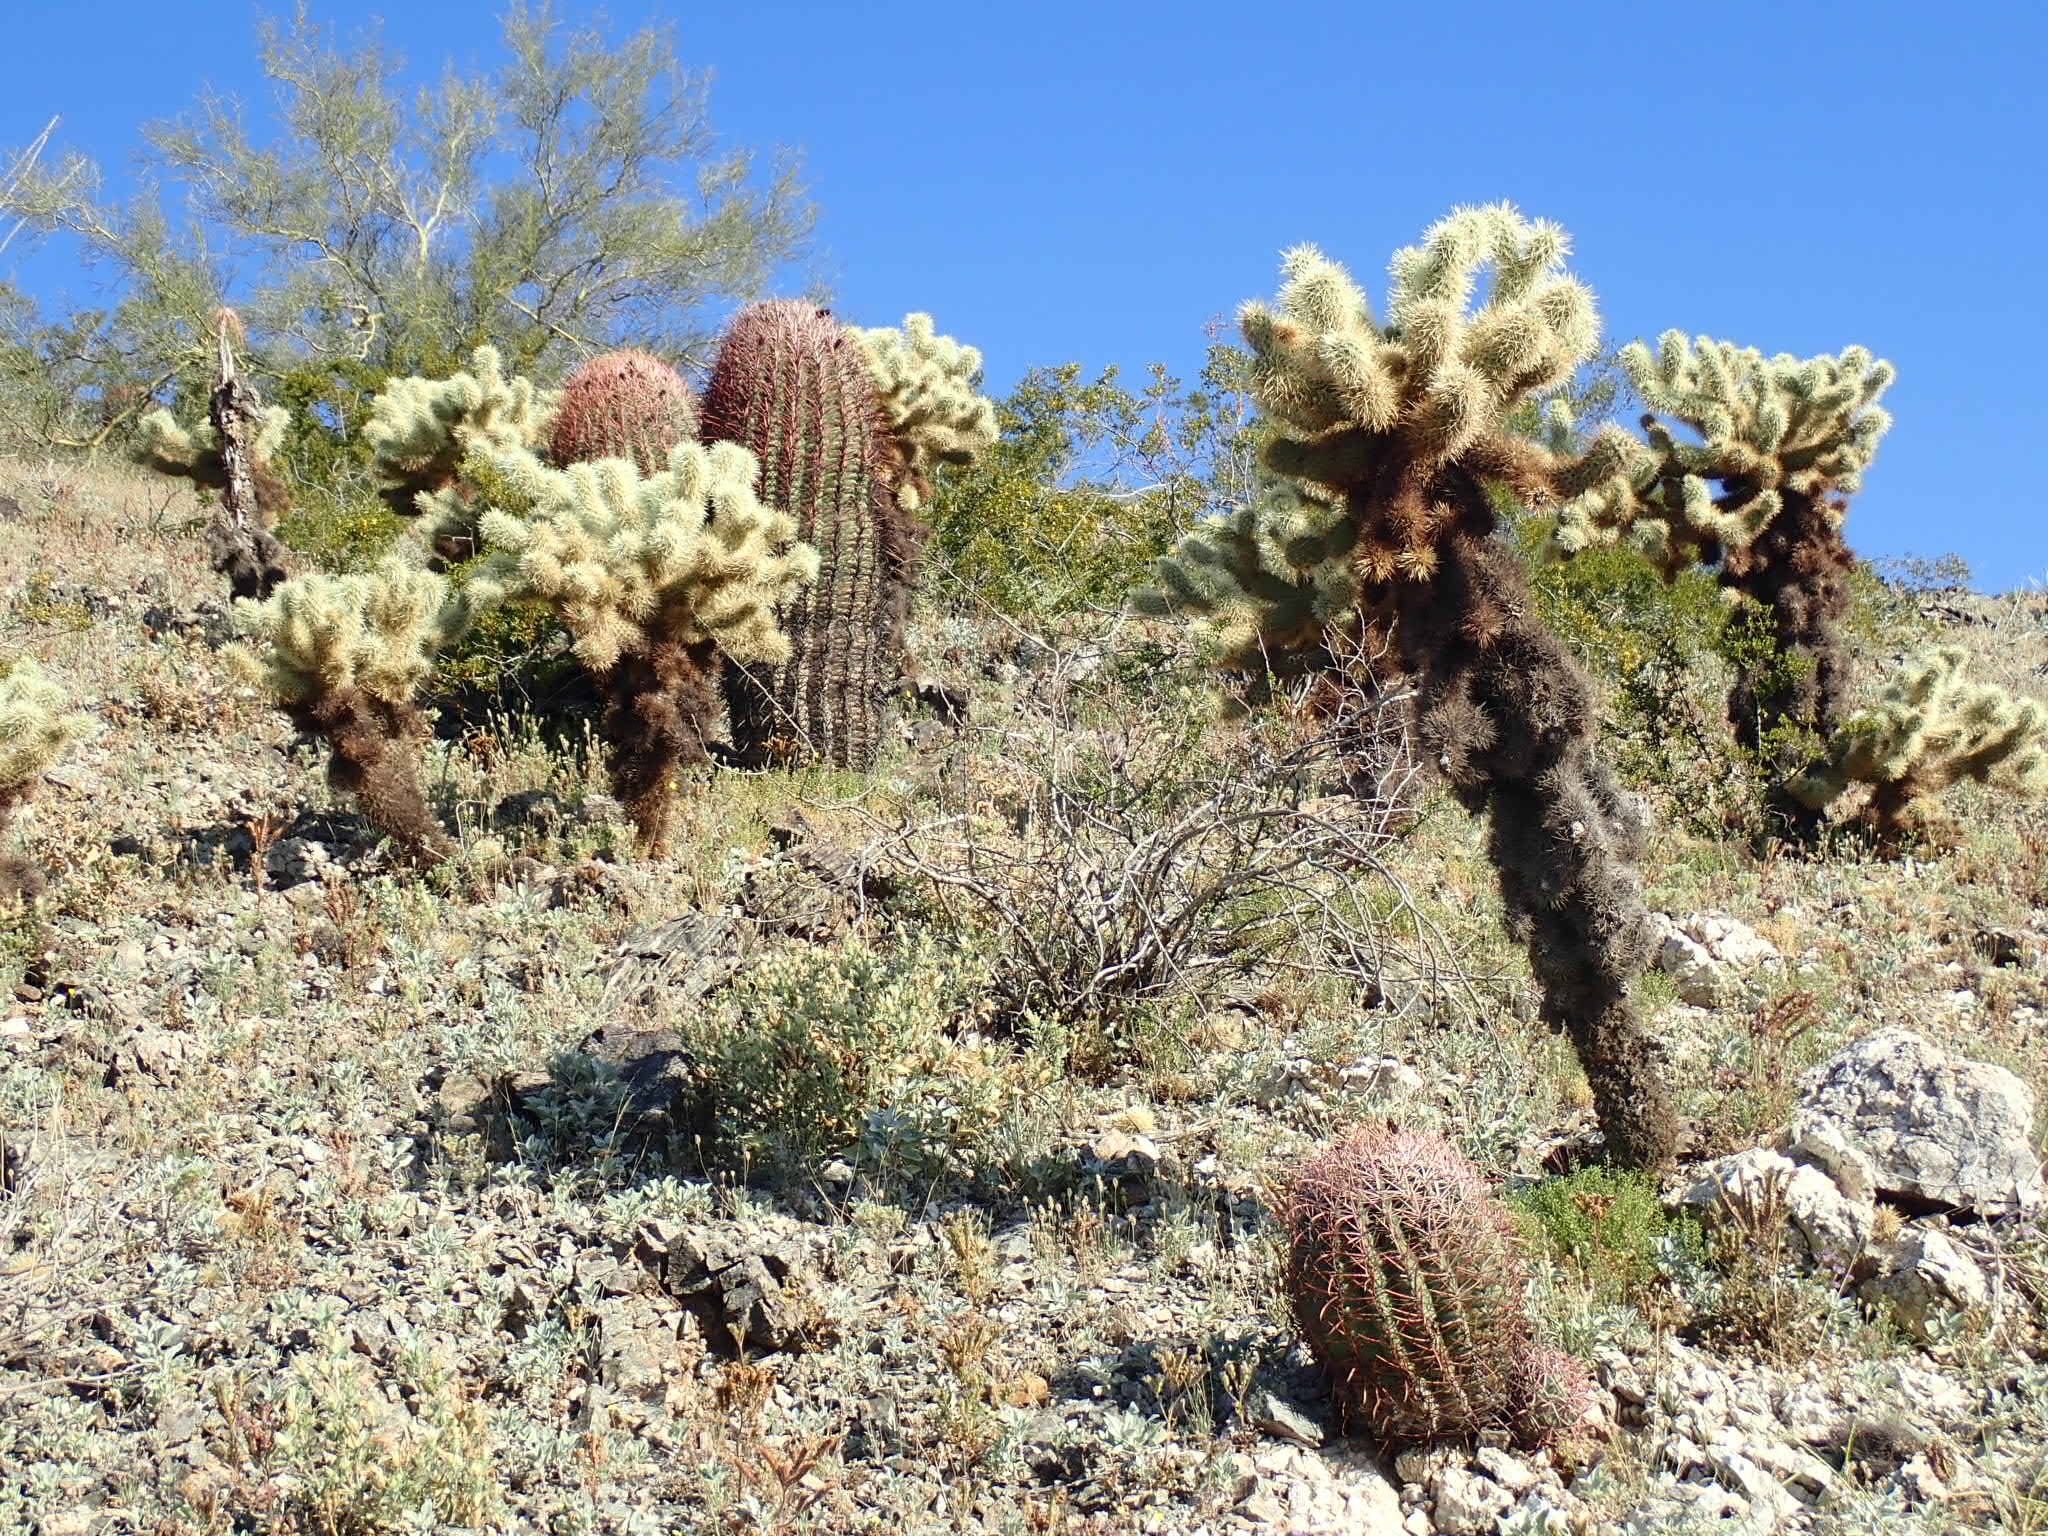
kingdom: Plantae
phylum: Tracheophyta
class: Magnoliopsida
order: Caryophyllales
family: Cactaceae
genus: Cylindropuntia
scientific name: Cylindropuntia fosbergii
